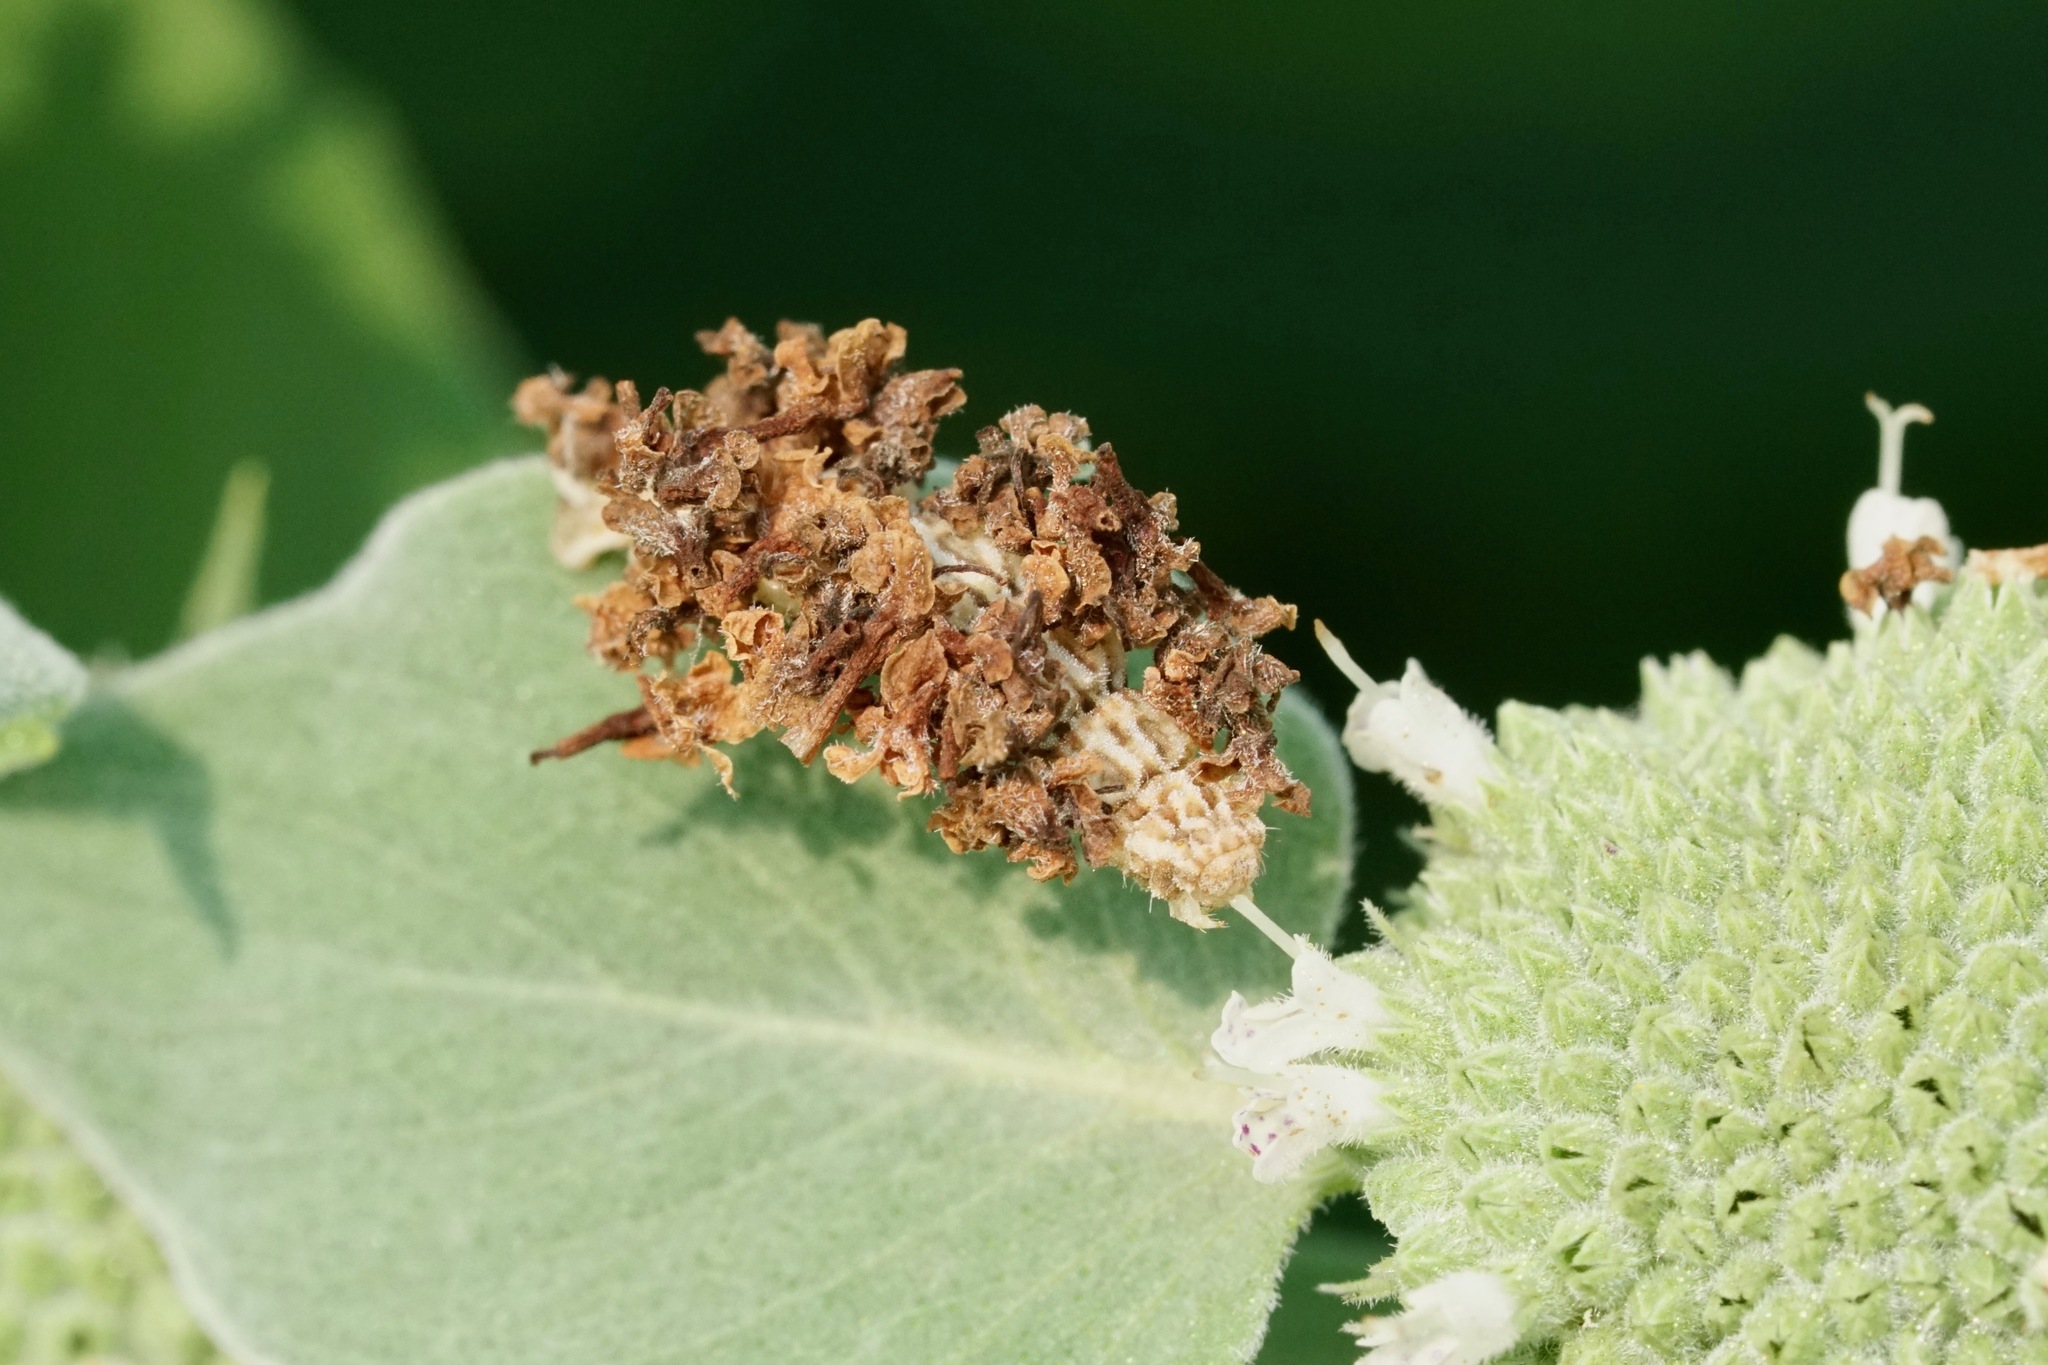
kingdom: Animalia
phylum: Arthropoda
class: Insecta
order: Lepidoptera
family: Geometridae
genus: Synchlora
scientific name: Synchlora aerata
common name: Wavy-lined emerald
